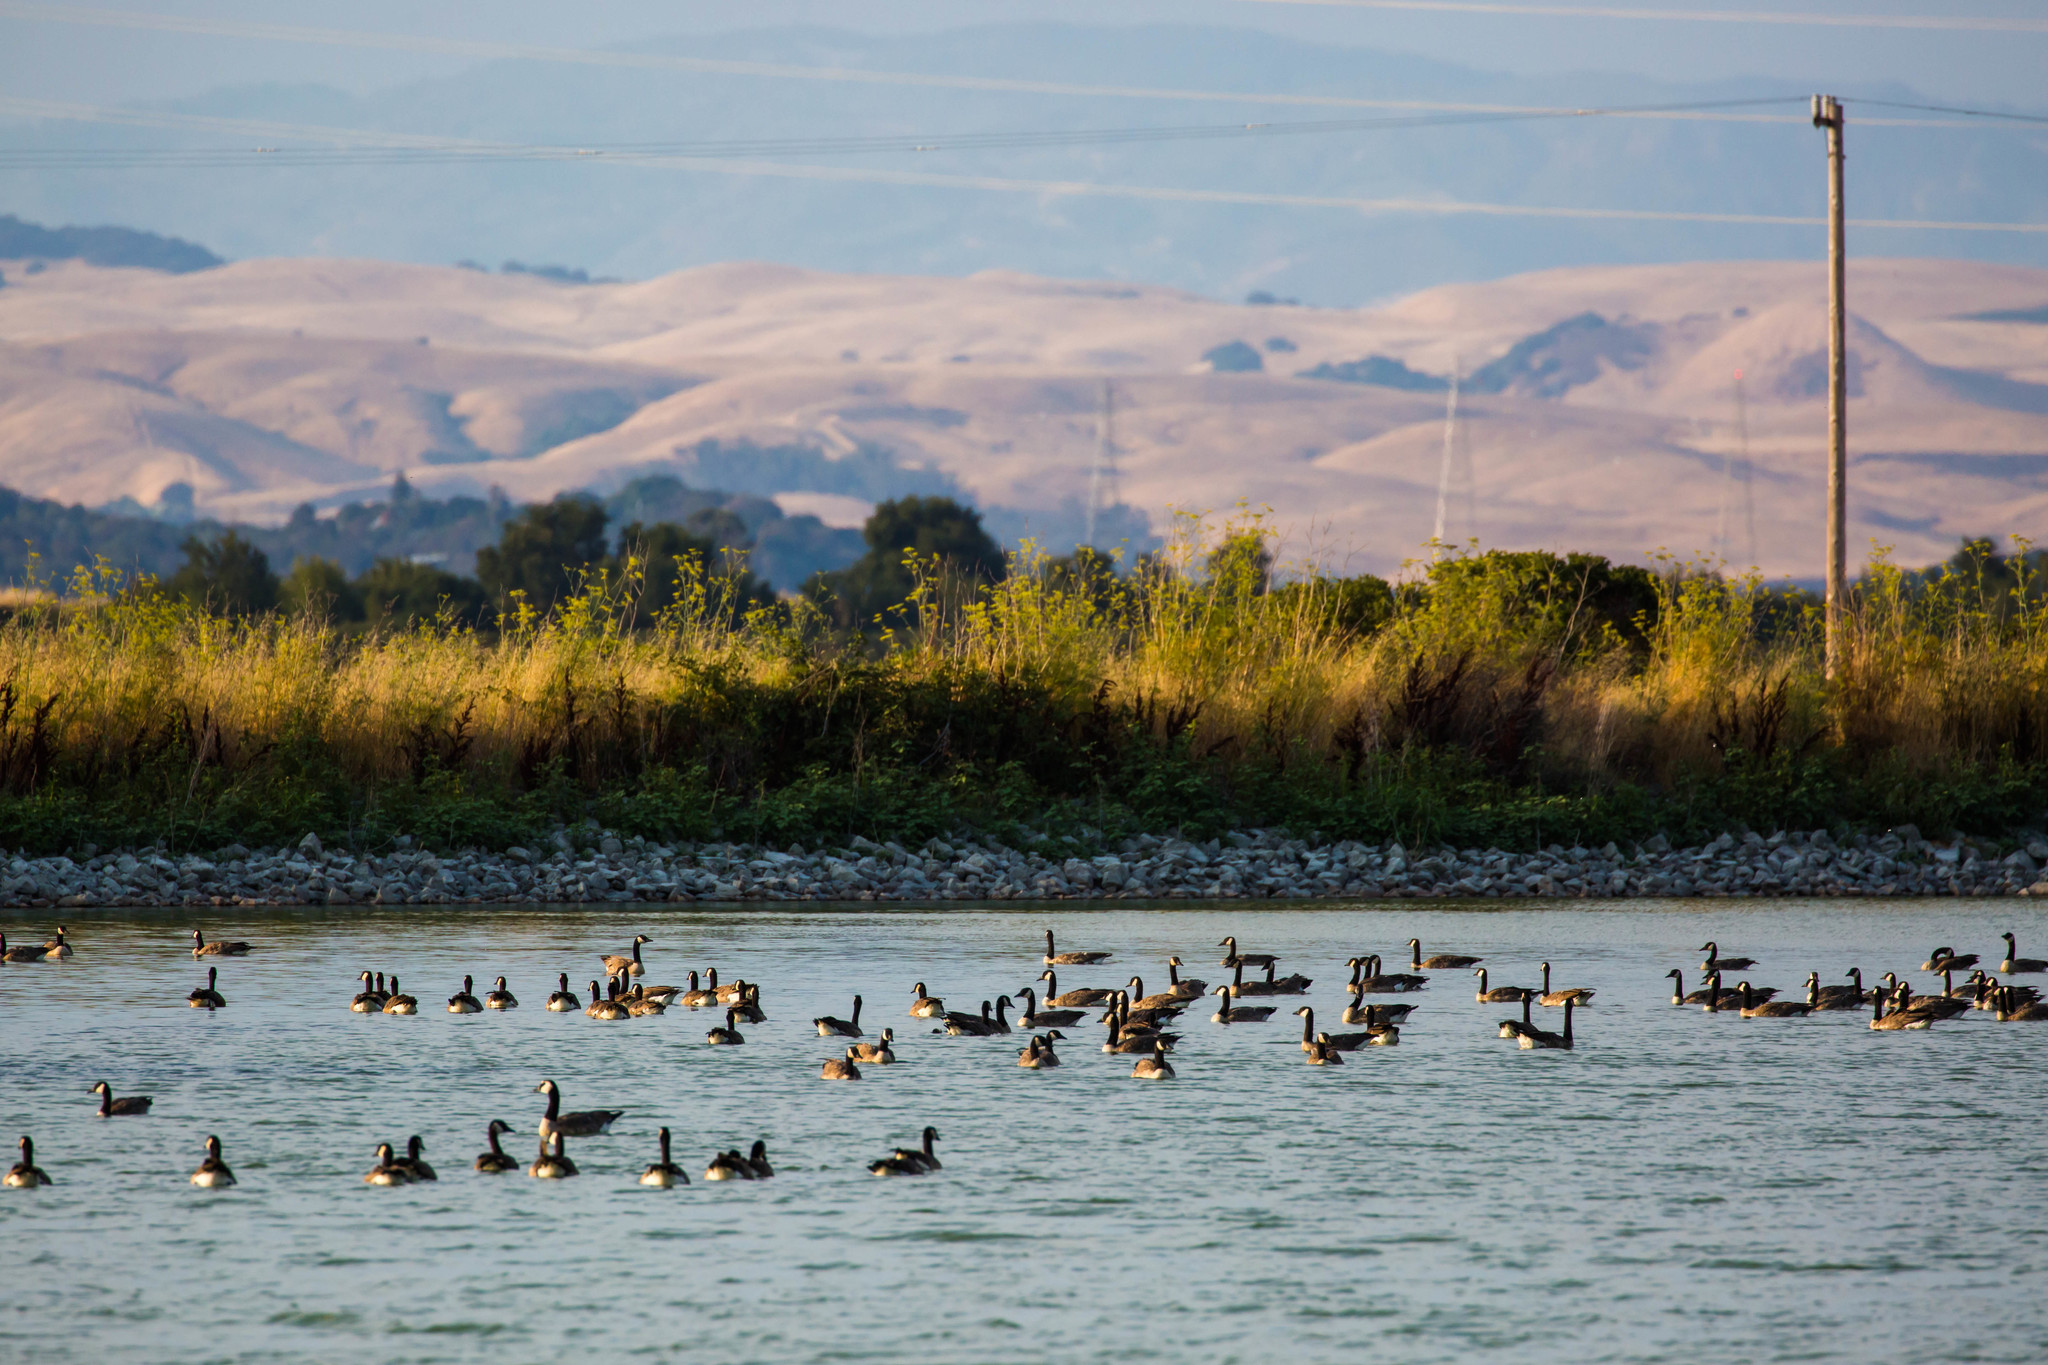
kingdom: Animalia
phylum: Chordata
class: Aves
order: Anseriformes
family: Anatidae
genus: Branta
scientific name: Branta canadensis
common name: Canada goose
